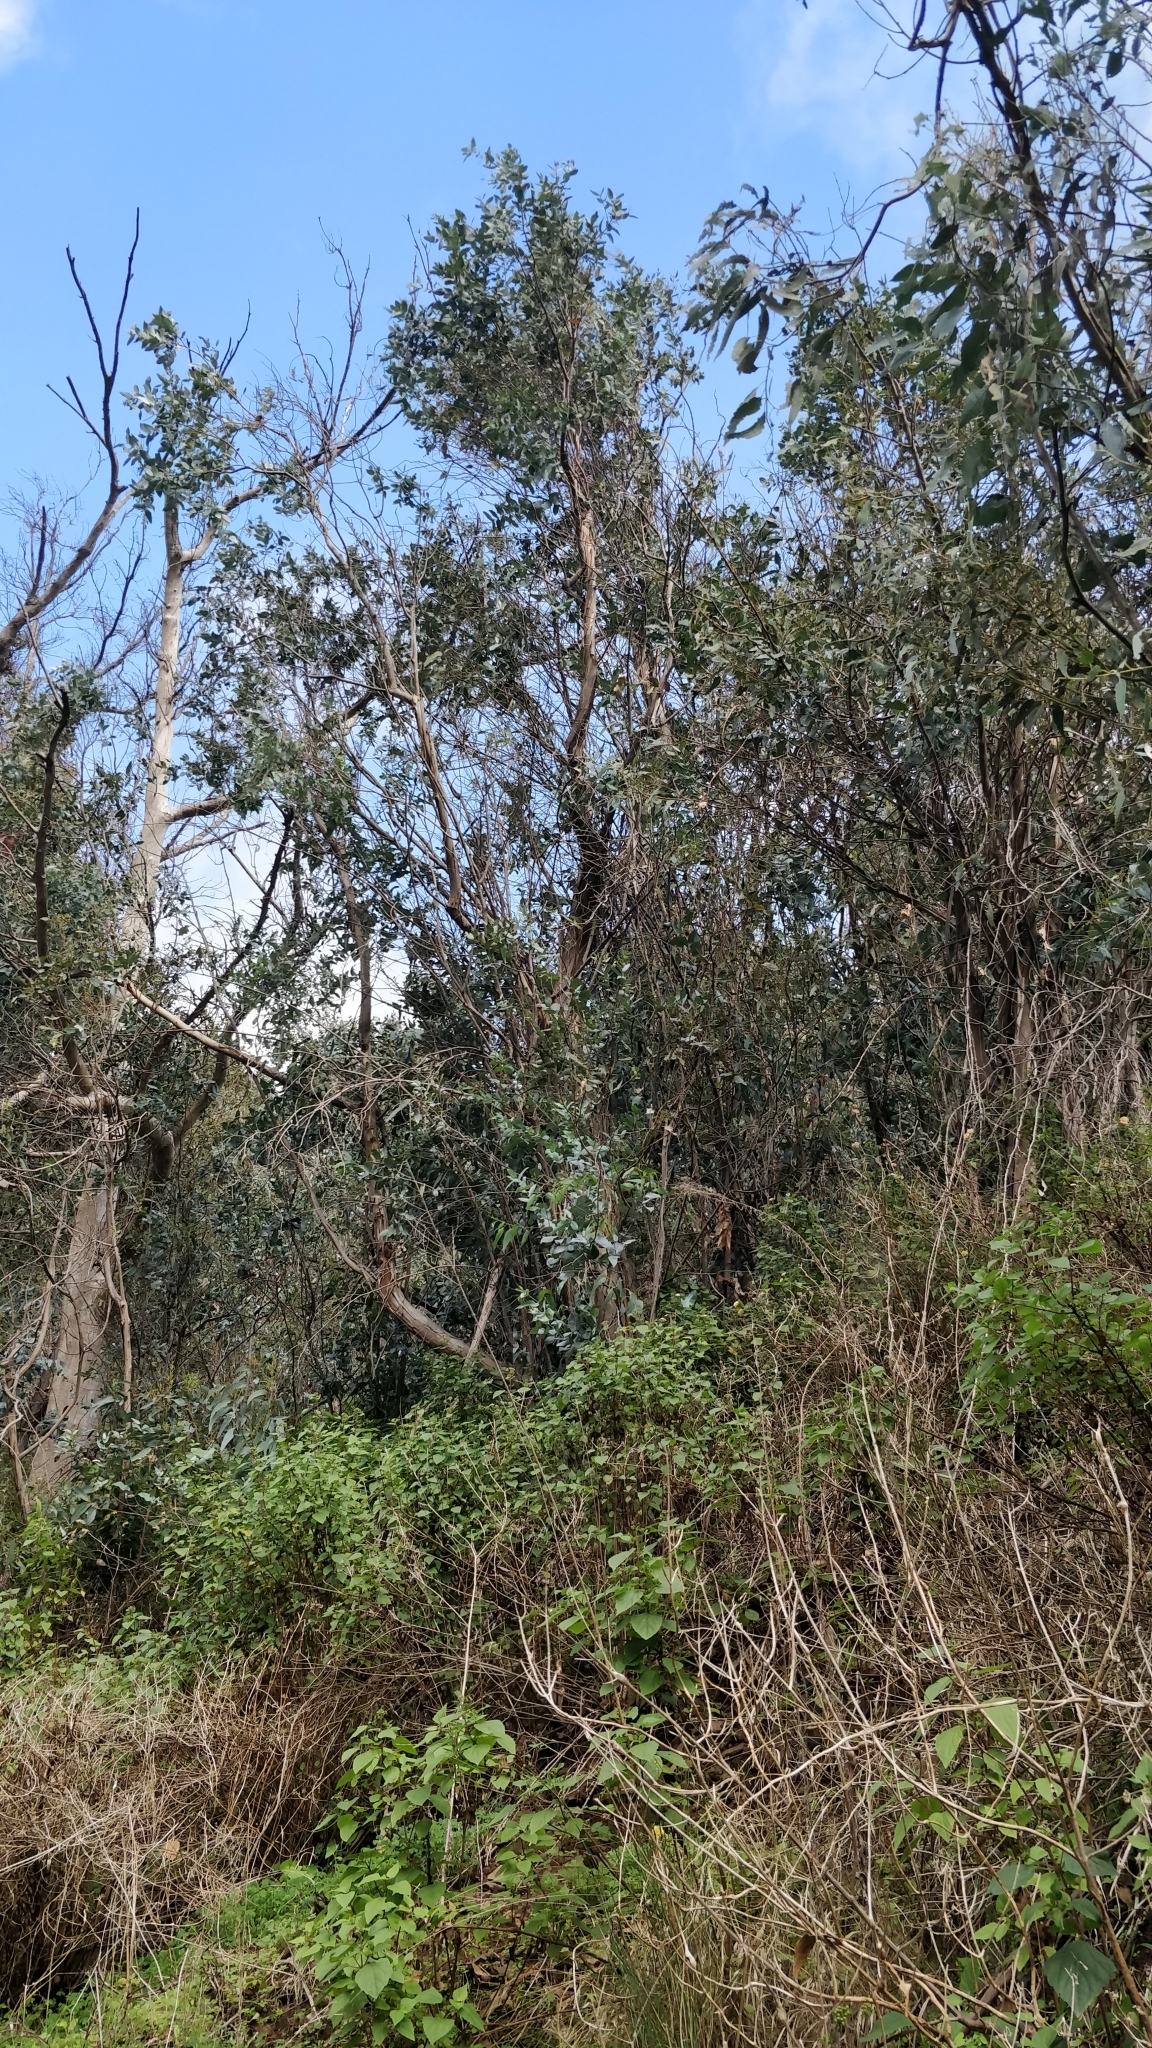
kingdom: Plantae
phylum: Tracheophyta
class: Magnoliopsida
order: Myrtales
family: Myrtaceae
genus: Eucalyptus
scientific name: Eucalyptus globulus
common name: Southern blue-gum
